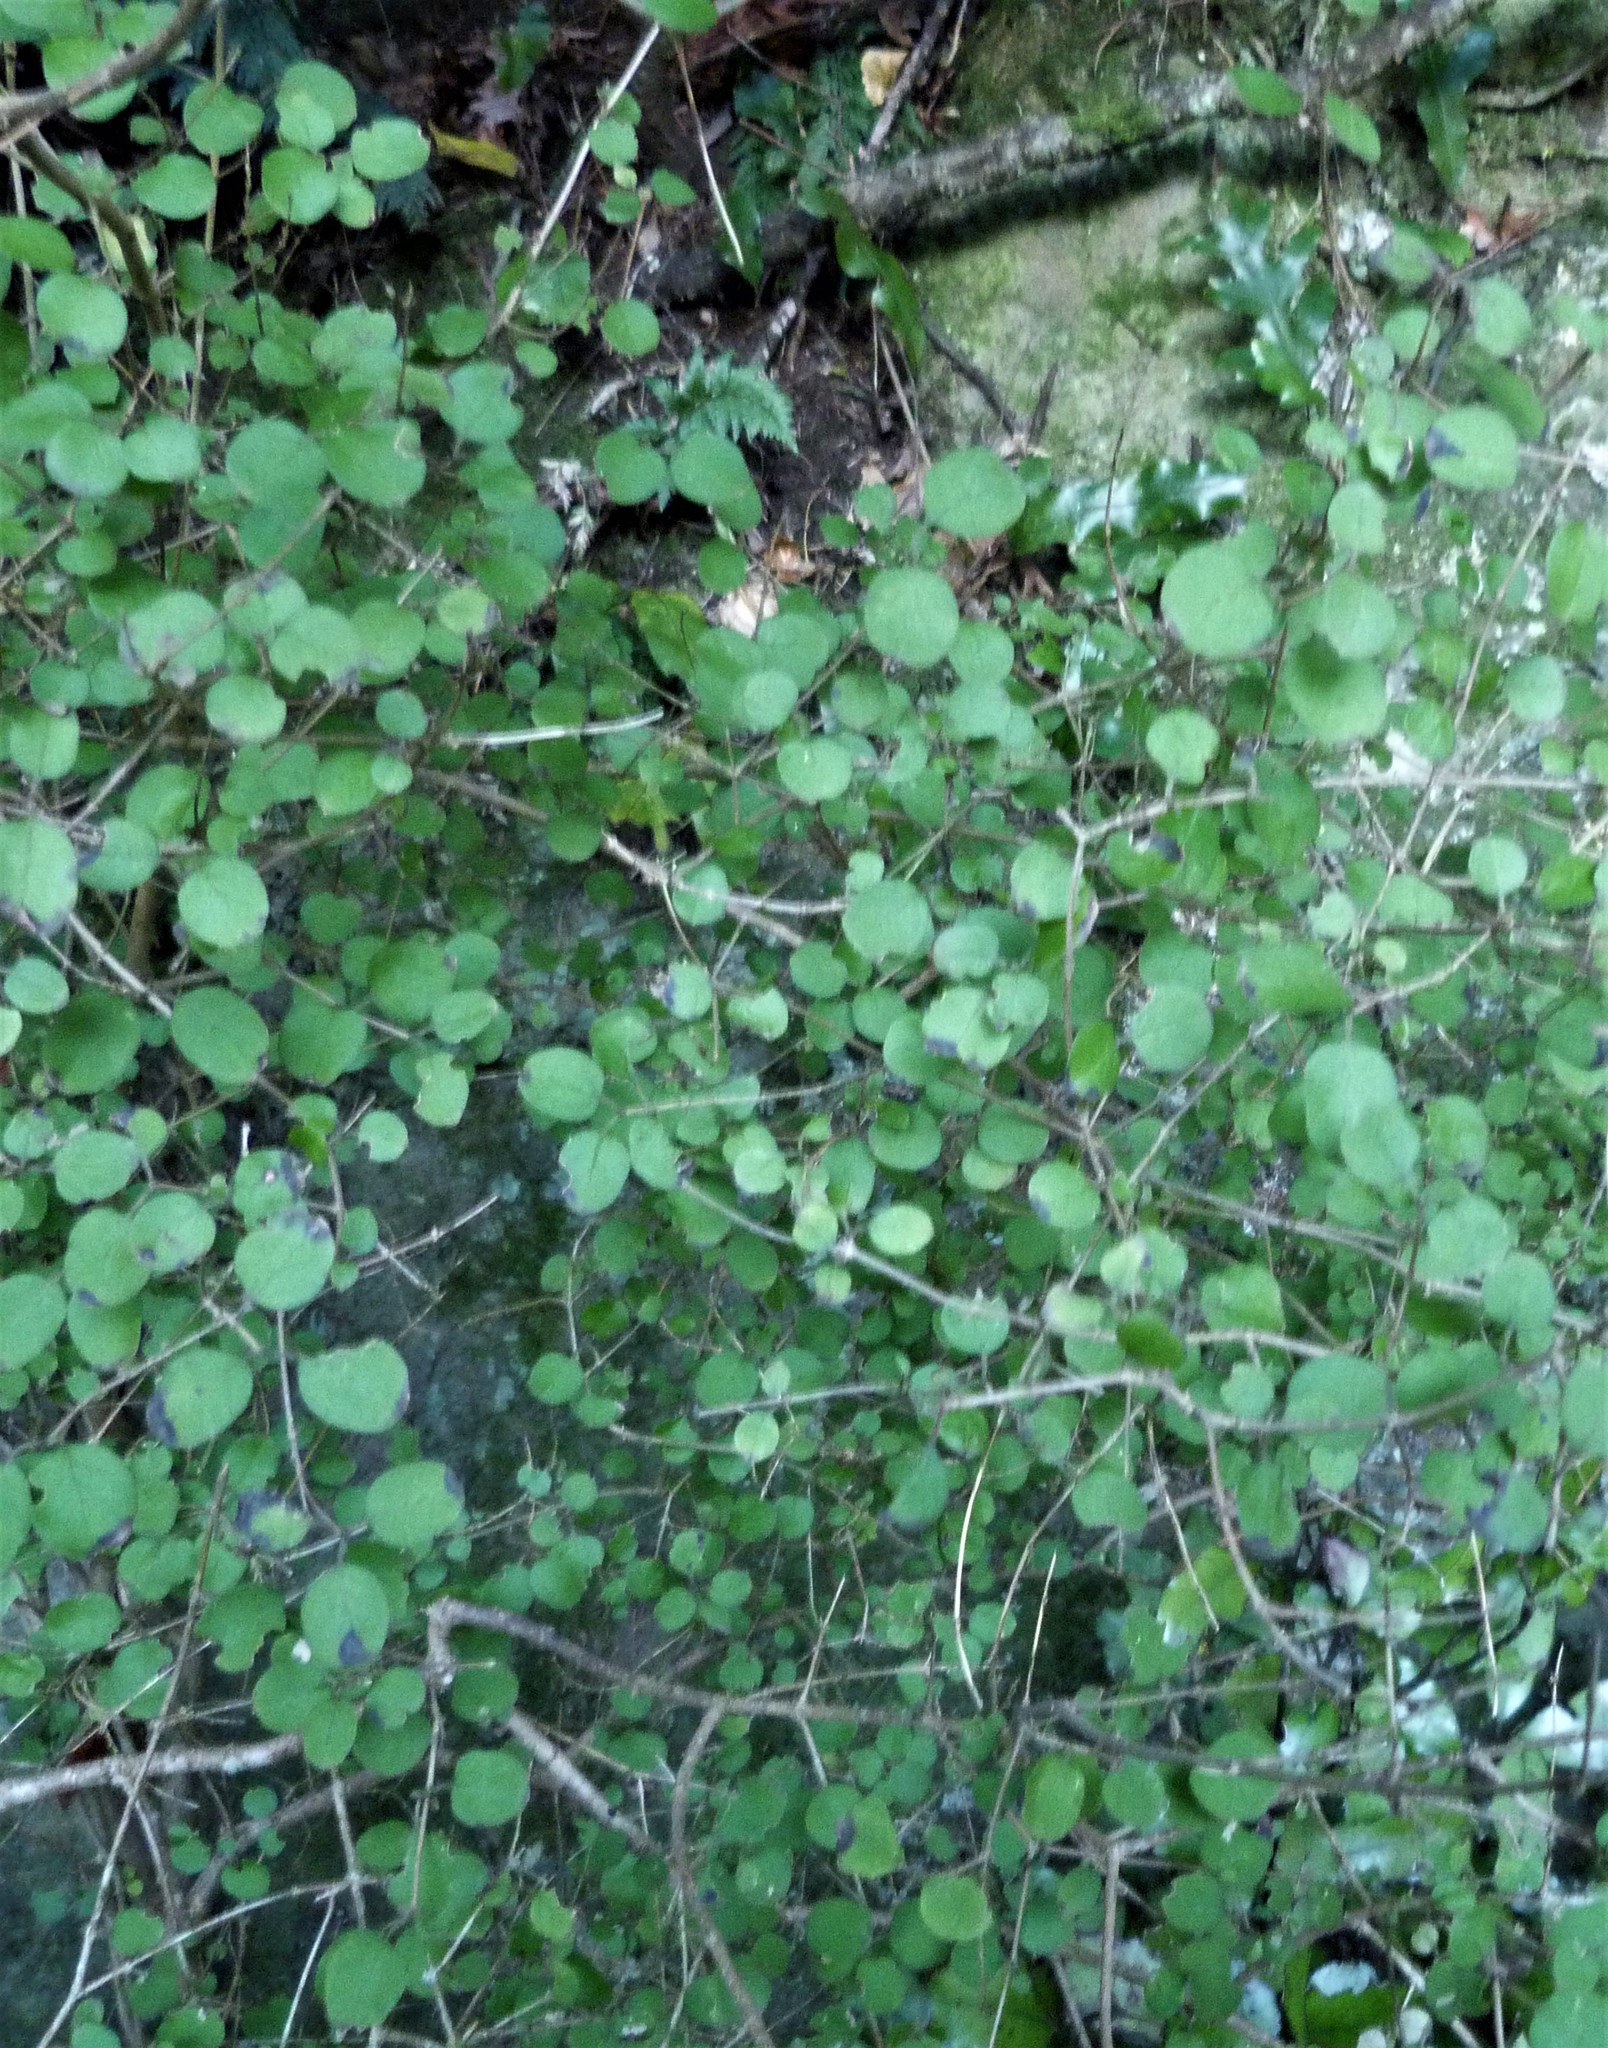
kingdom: Plantae
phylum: Tracheophyta
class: Magnoliopsida
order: Gentianales
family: Rubiaceae
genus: Coprosma
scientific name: Coprosma rotundifolia
